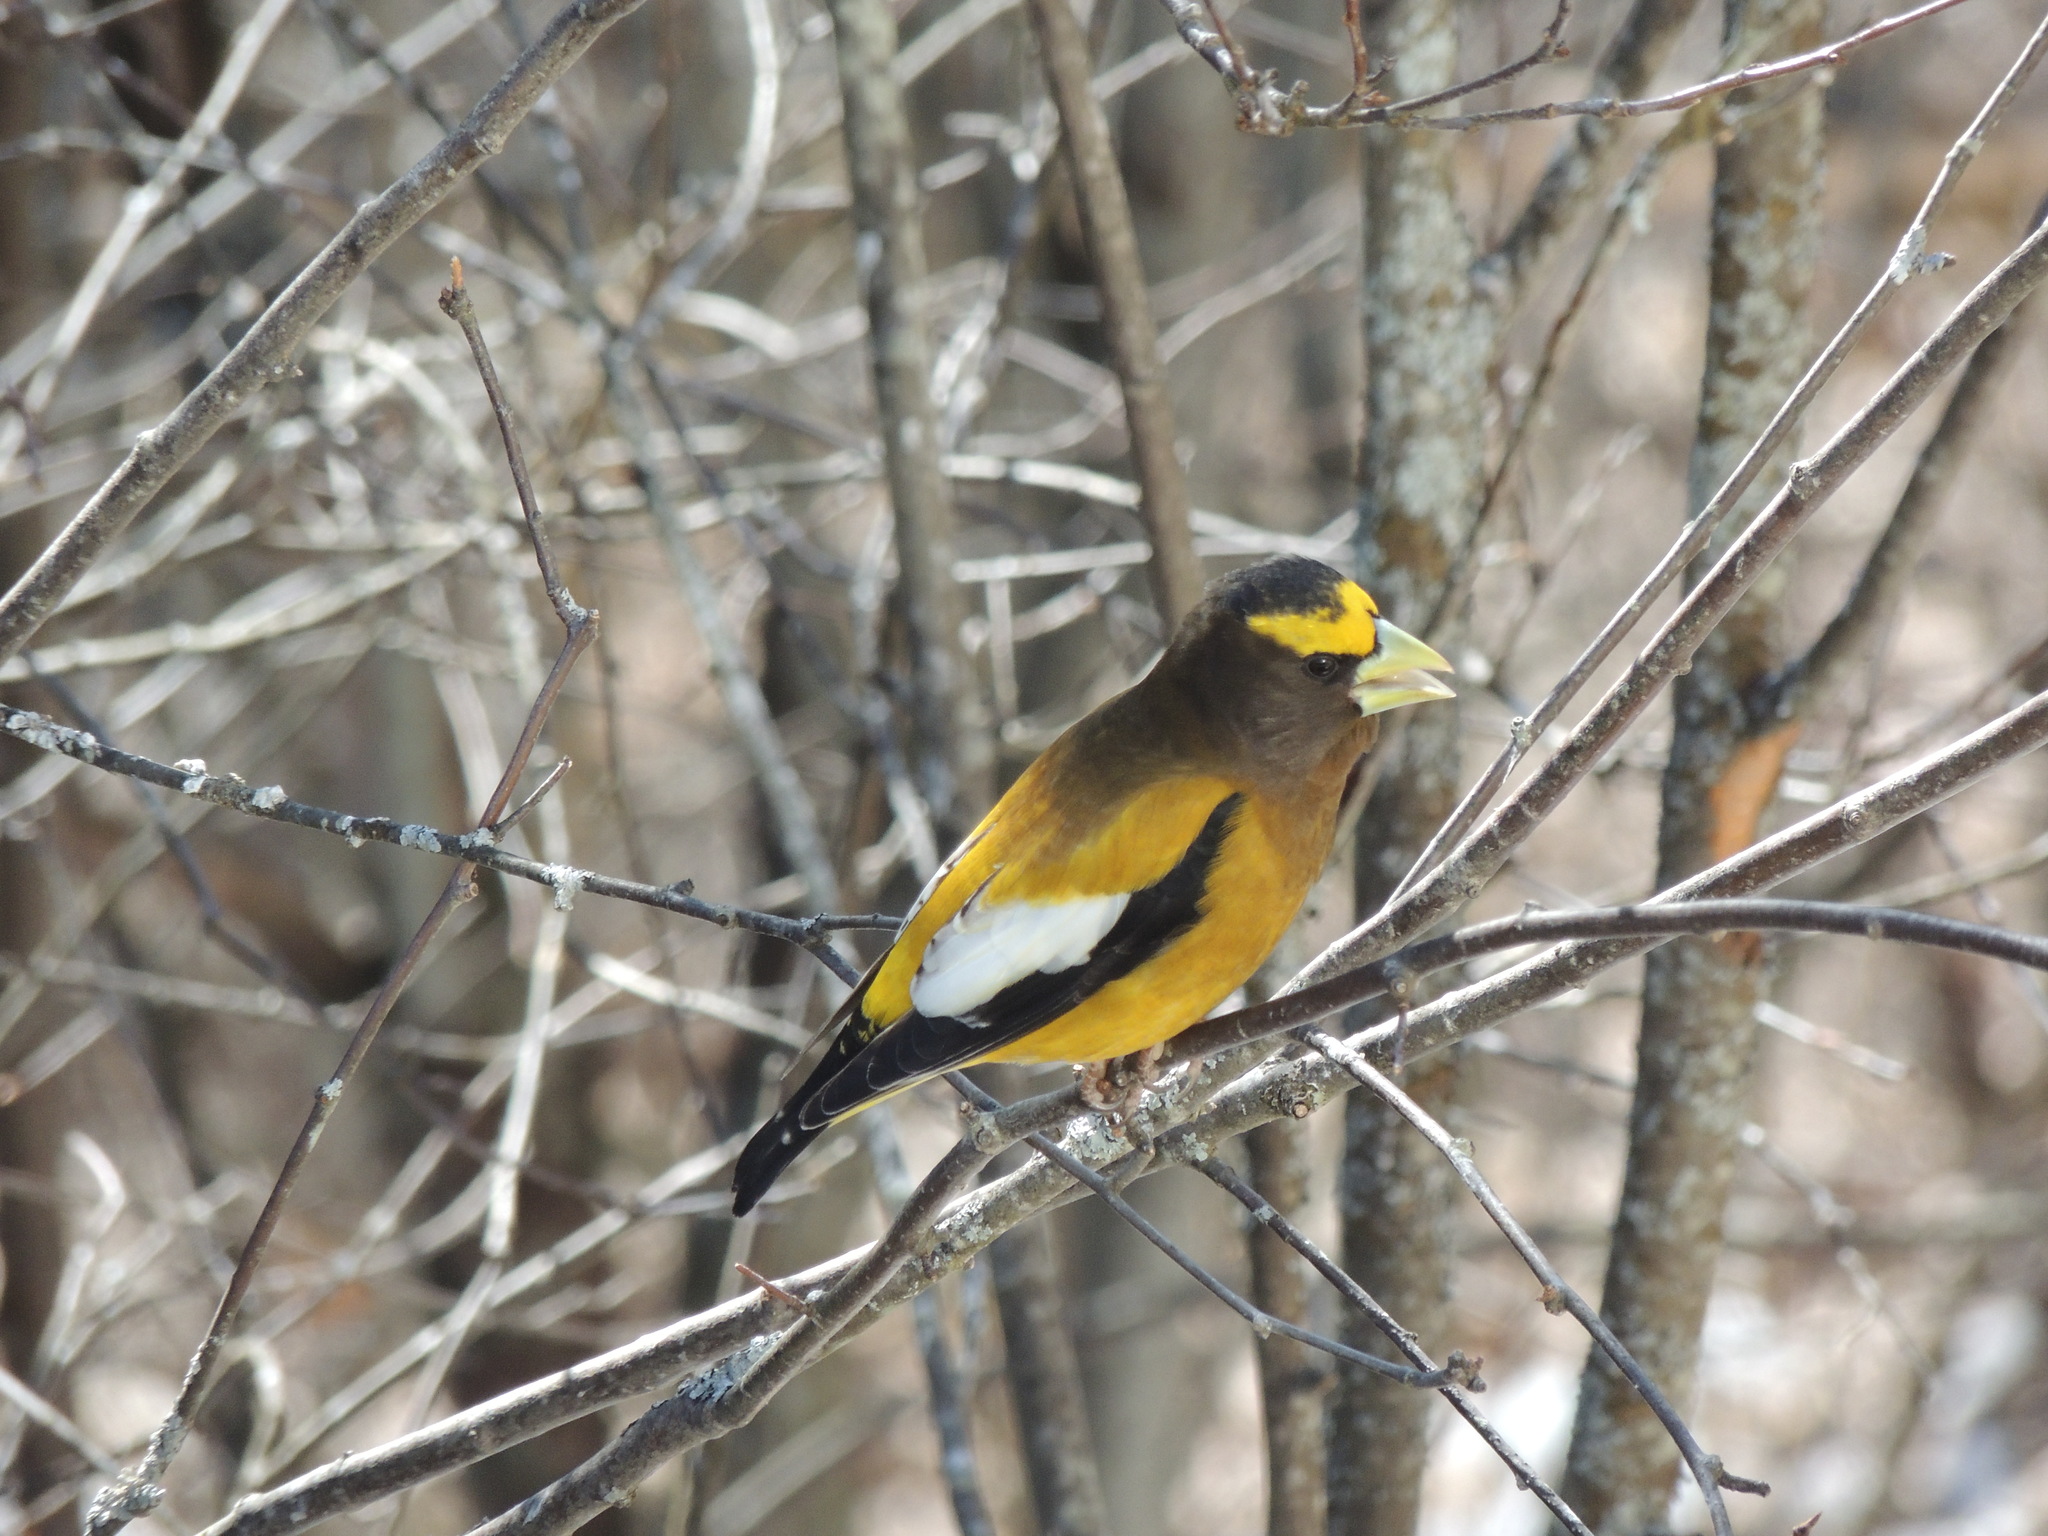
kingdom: Animalia
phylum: Chordata
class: Aves
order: Passeriformes
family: Fringillidae
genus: Hesperiphona
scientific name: Hesperiphona vespertina
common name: Evening grosbeak
